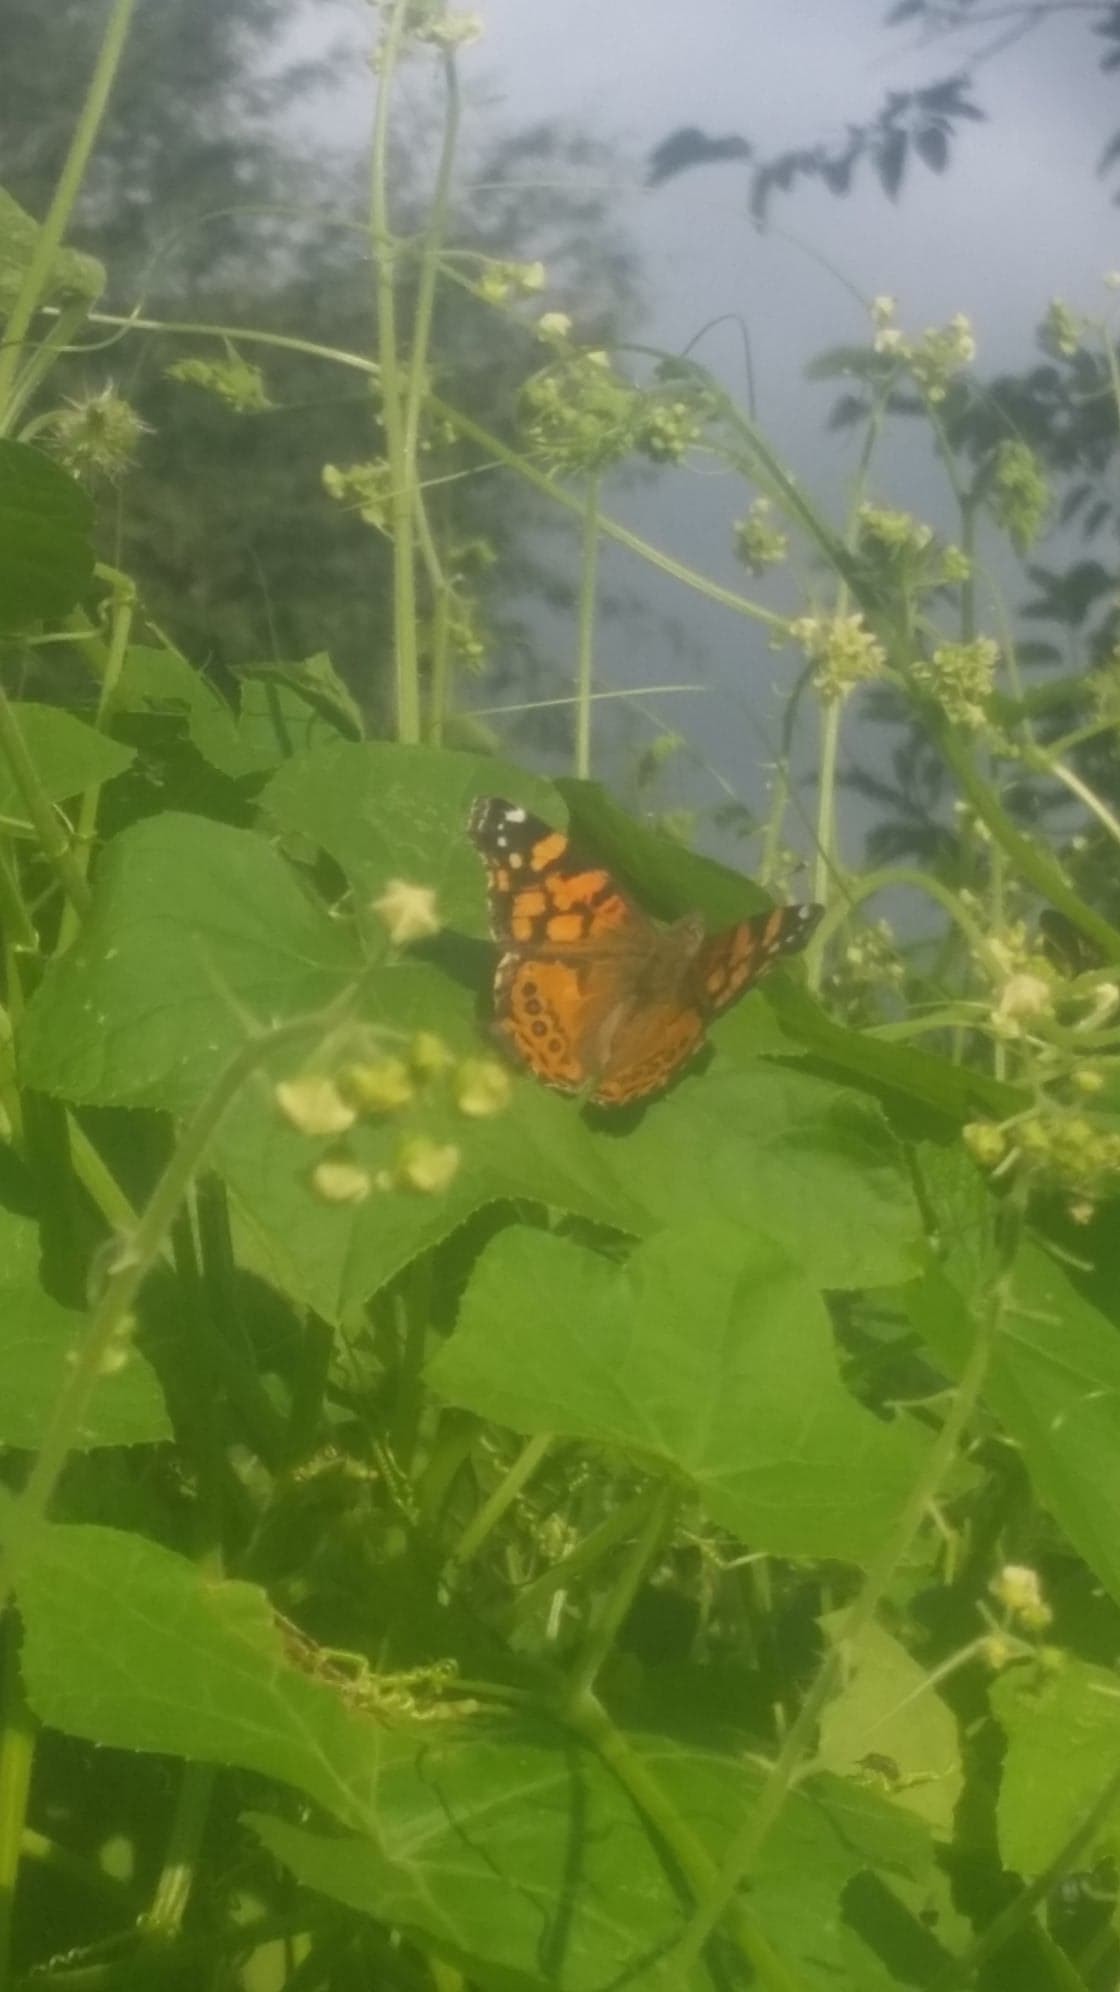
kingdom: Animalia
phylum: Arthropoda
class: Insecta
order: Lepidoptera
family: Nymphalidae
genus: Vanessa
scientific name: Vanessa annabella
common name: West coast lady
